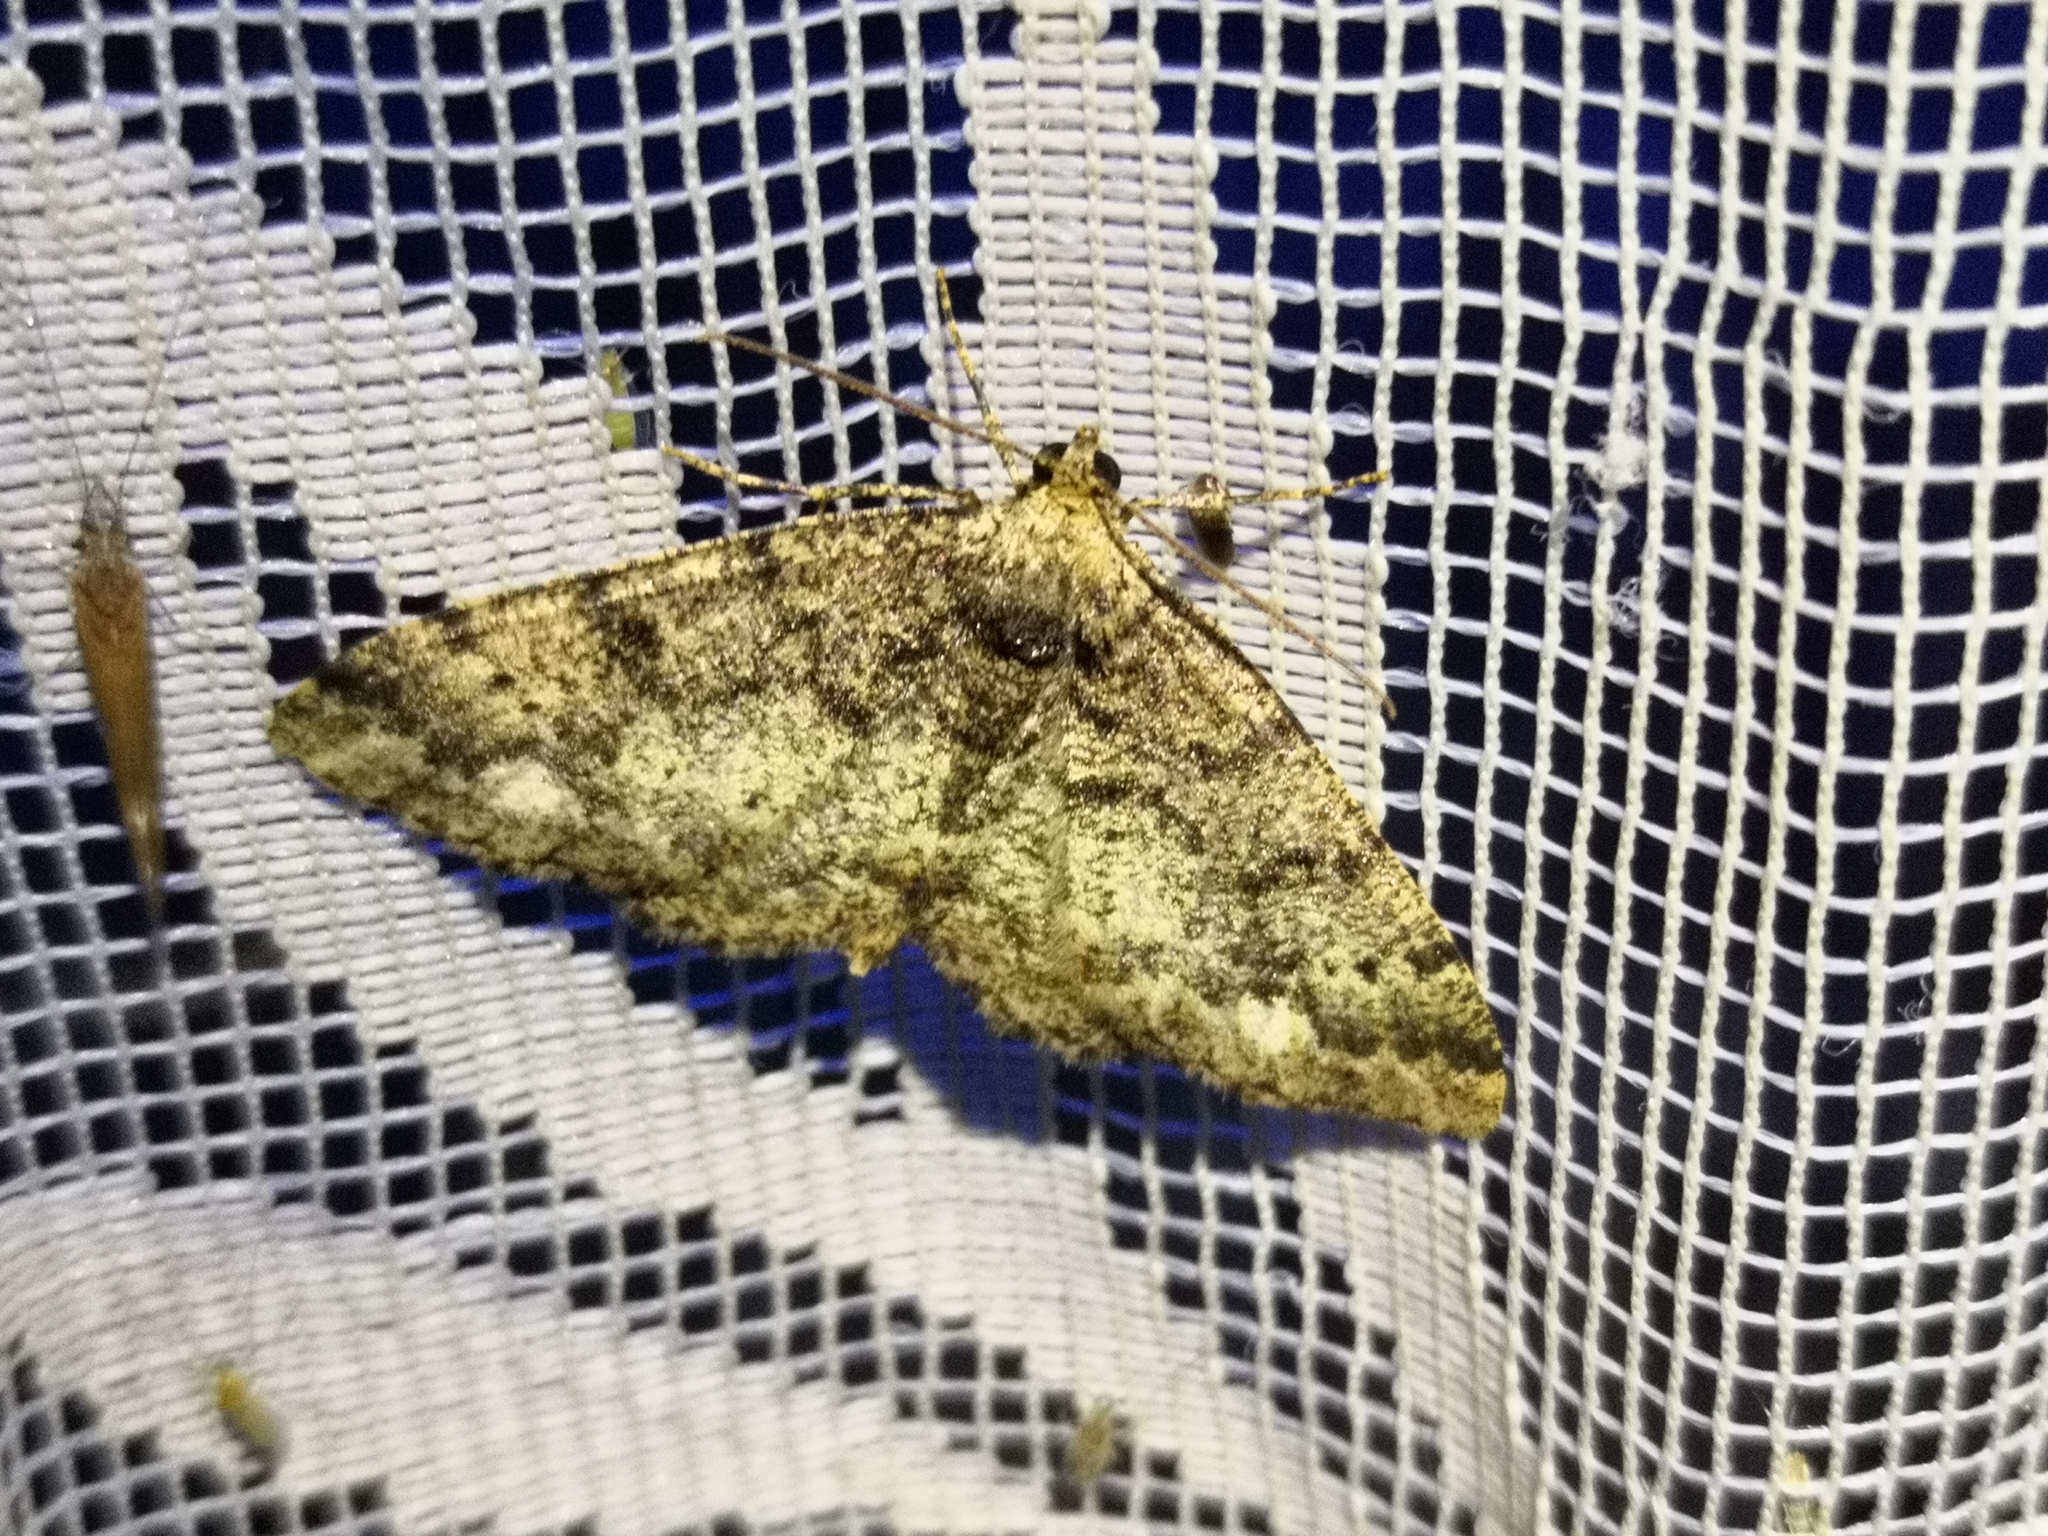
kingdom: Animalia
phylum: Arthropoda
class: Insecta
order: Lepidoptera
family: Geometridae
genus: Parectropis
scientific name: Parectropis similaria
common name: Brindled white-spot
